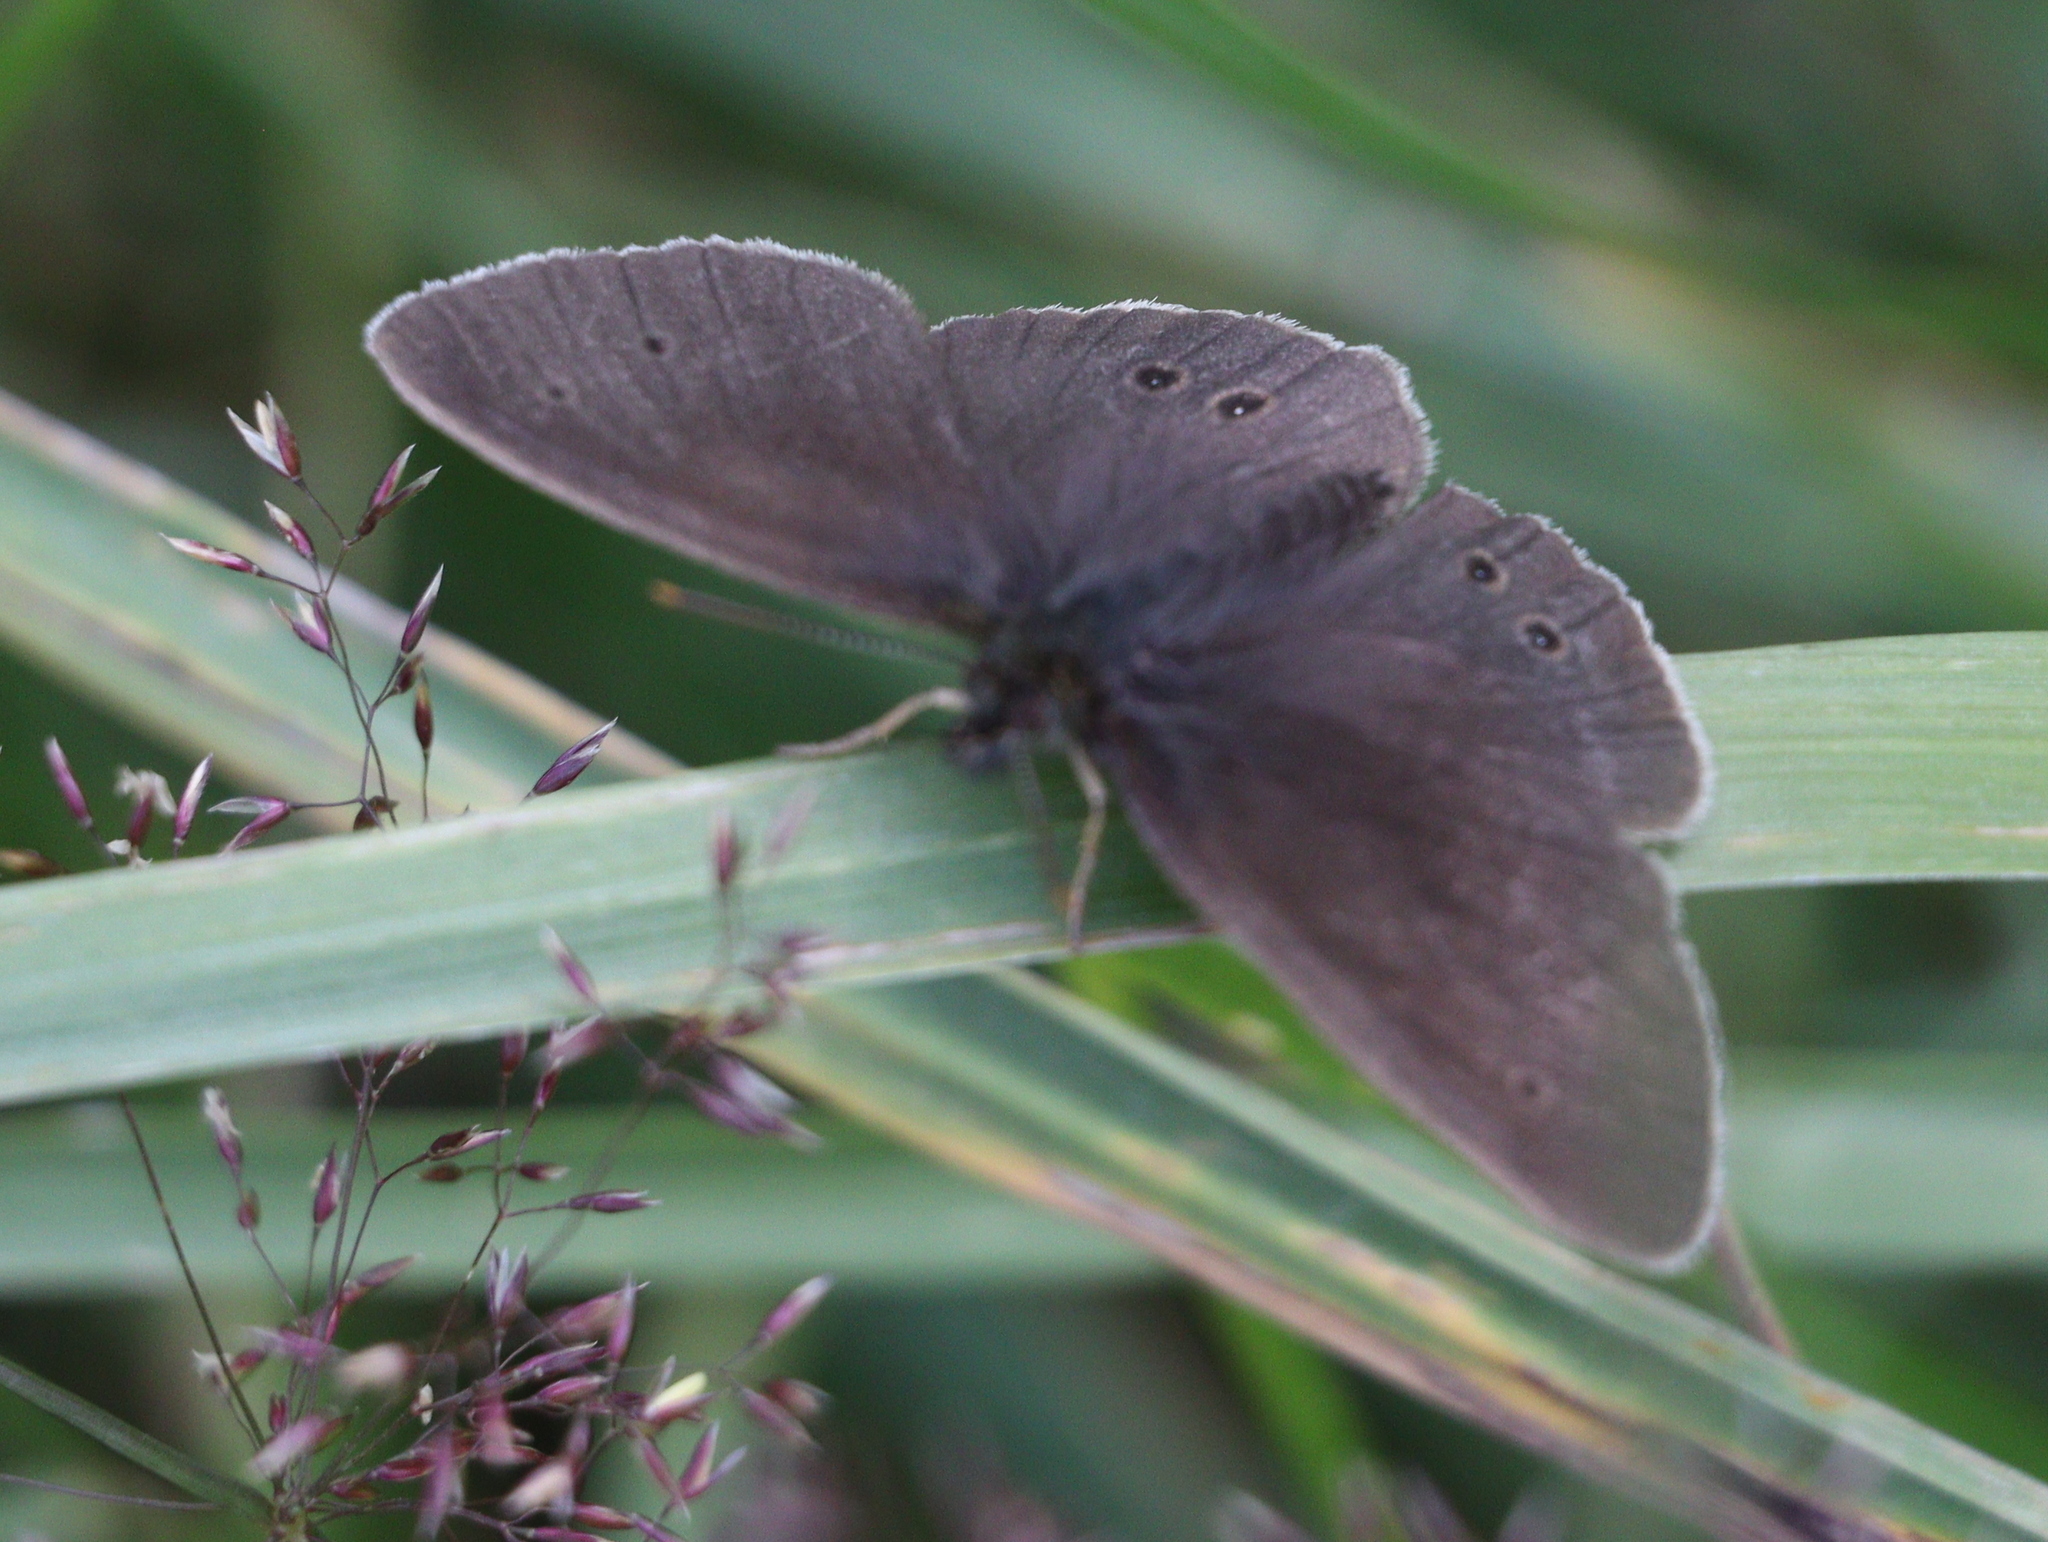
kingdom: Animalia
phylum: Arthropoda
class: Insecta
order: Lepidoptera
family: Nymphalidae
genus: Aphantopus
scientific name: Aphantopus hyperantus
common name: Ringlet
